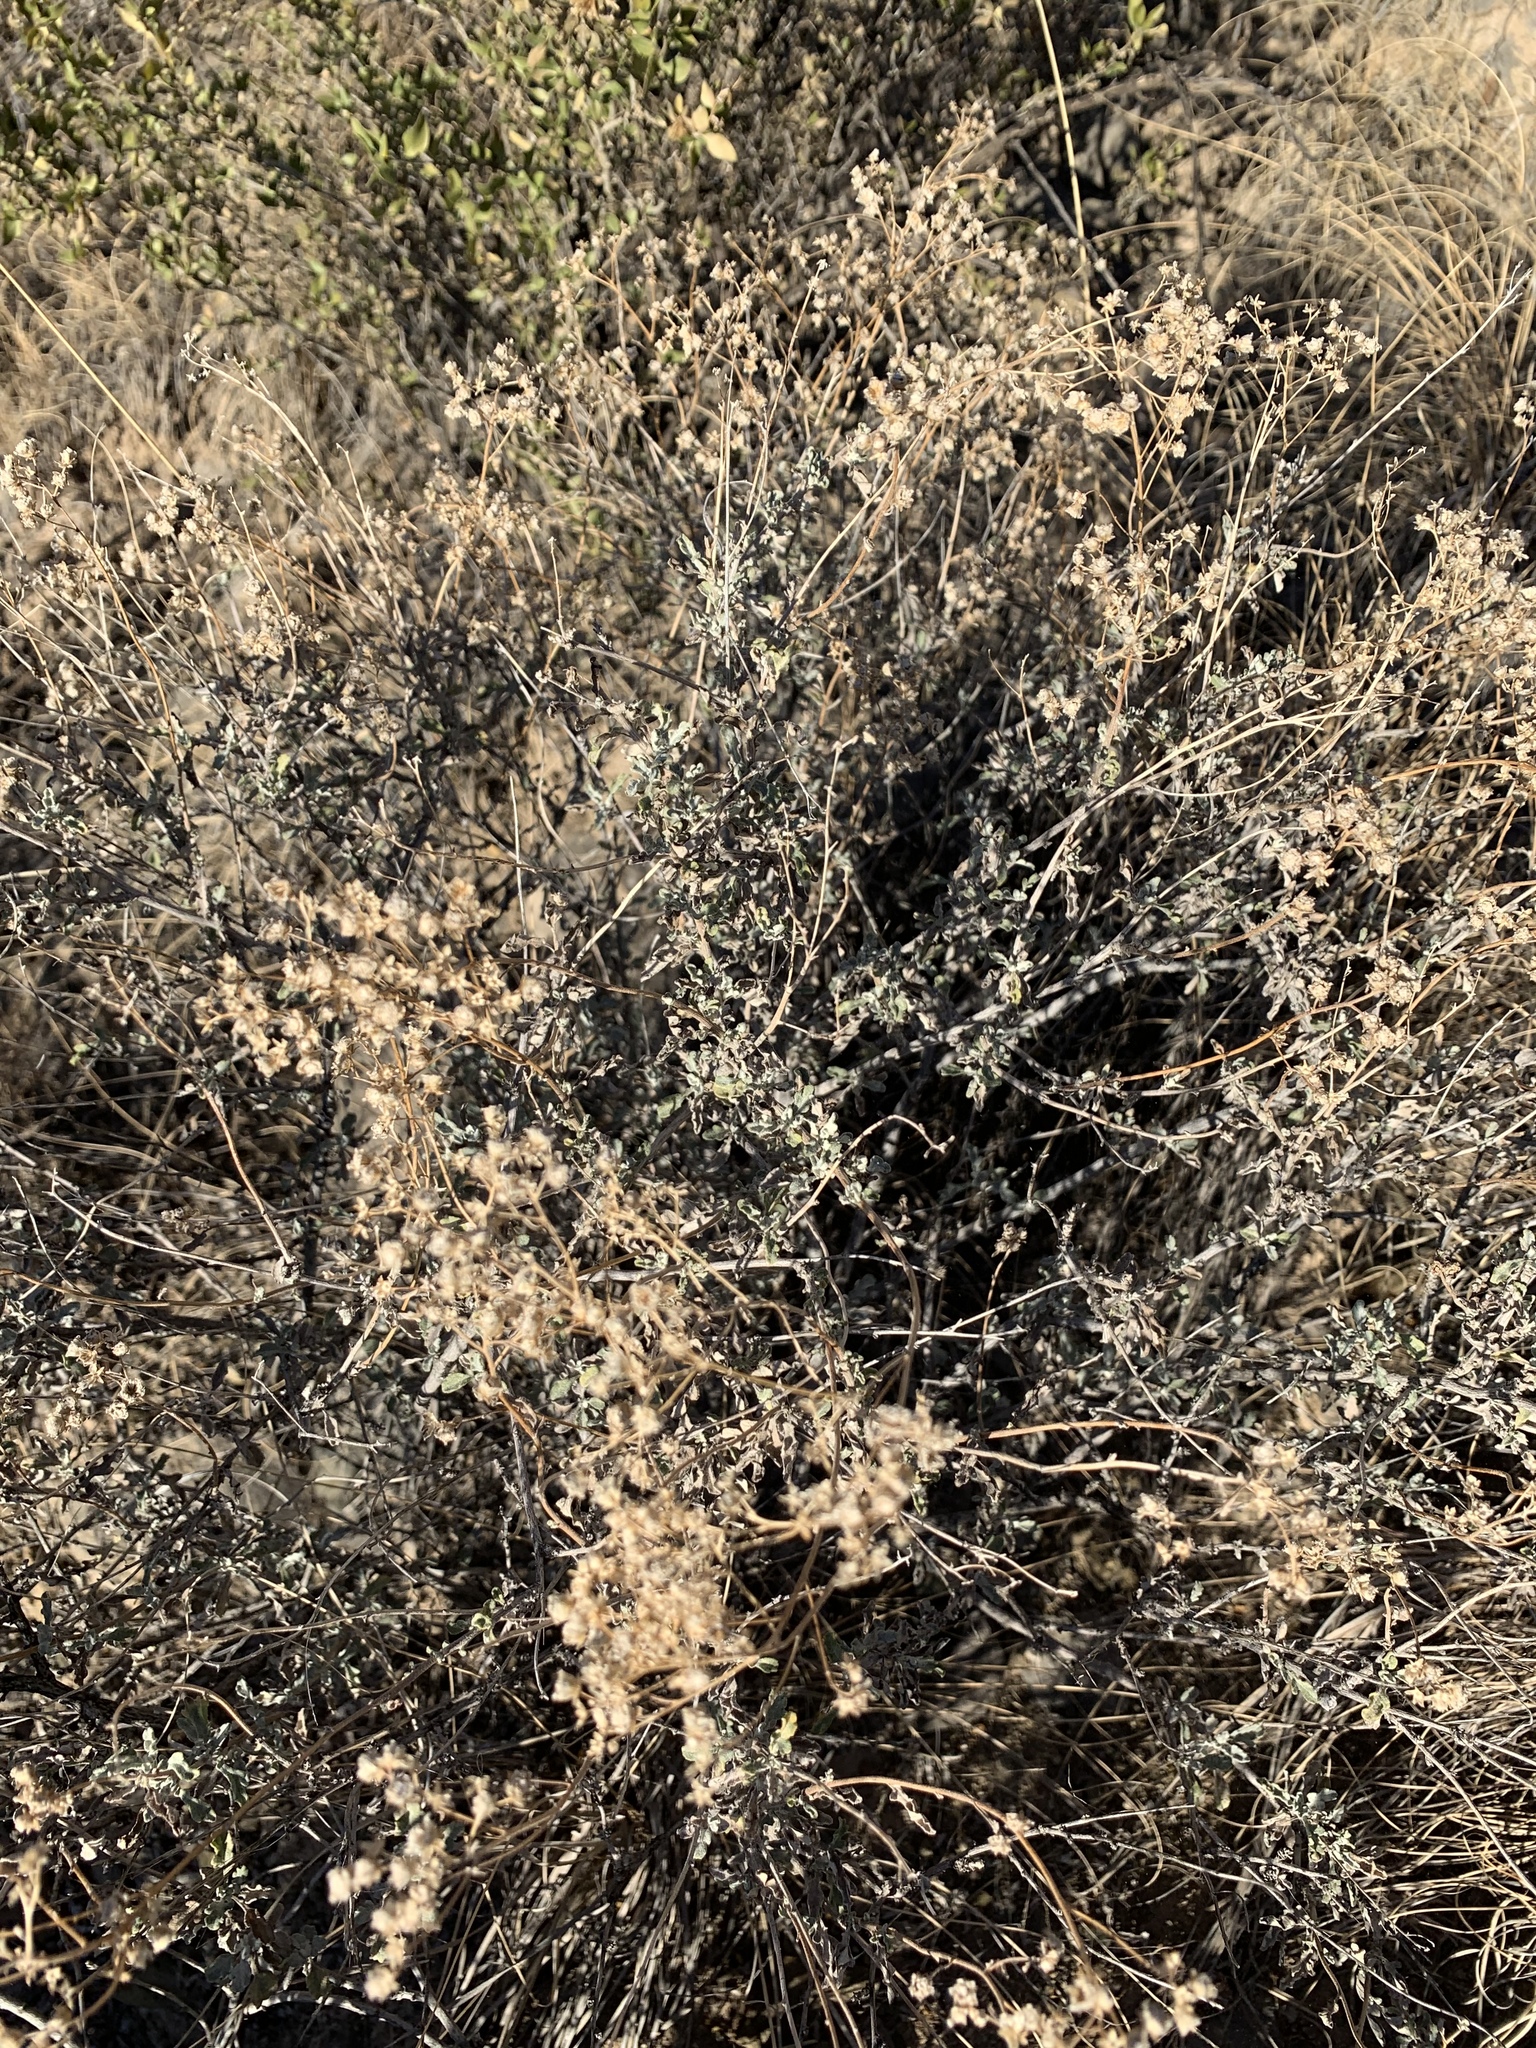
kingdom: Plantae
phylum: Tracheophyta
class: Magnoliopsida
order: Asterales
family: Asteraceae
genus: Parthenium
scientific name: Parthenium incanum
